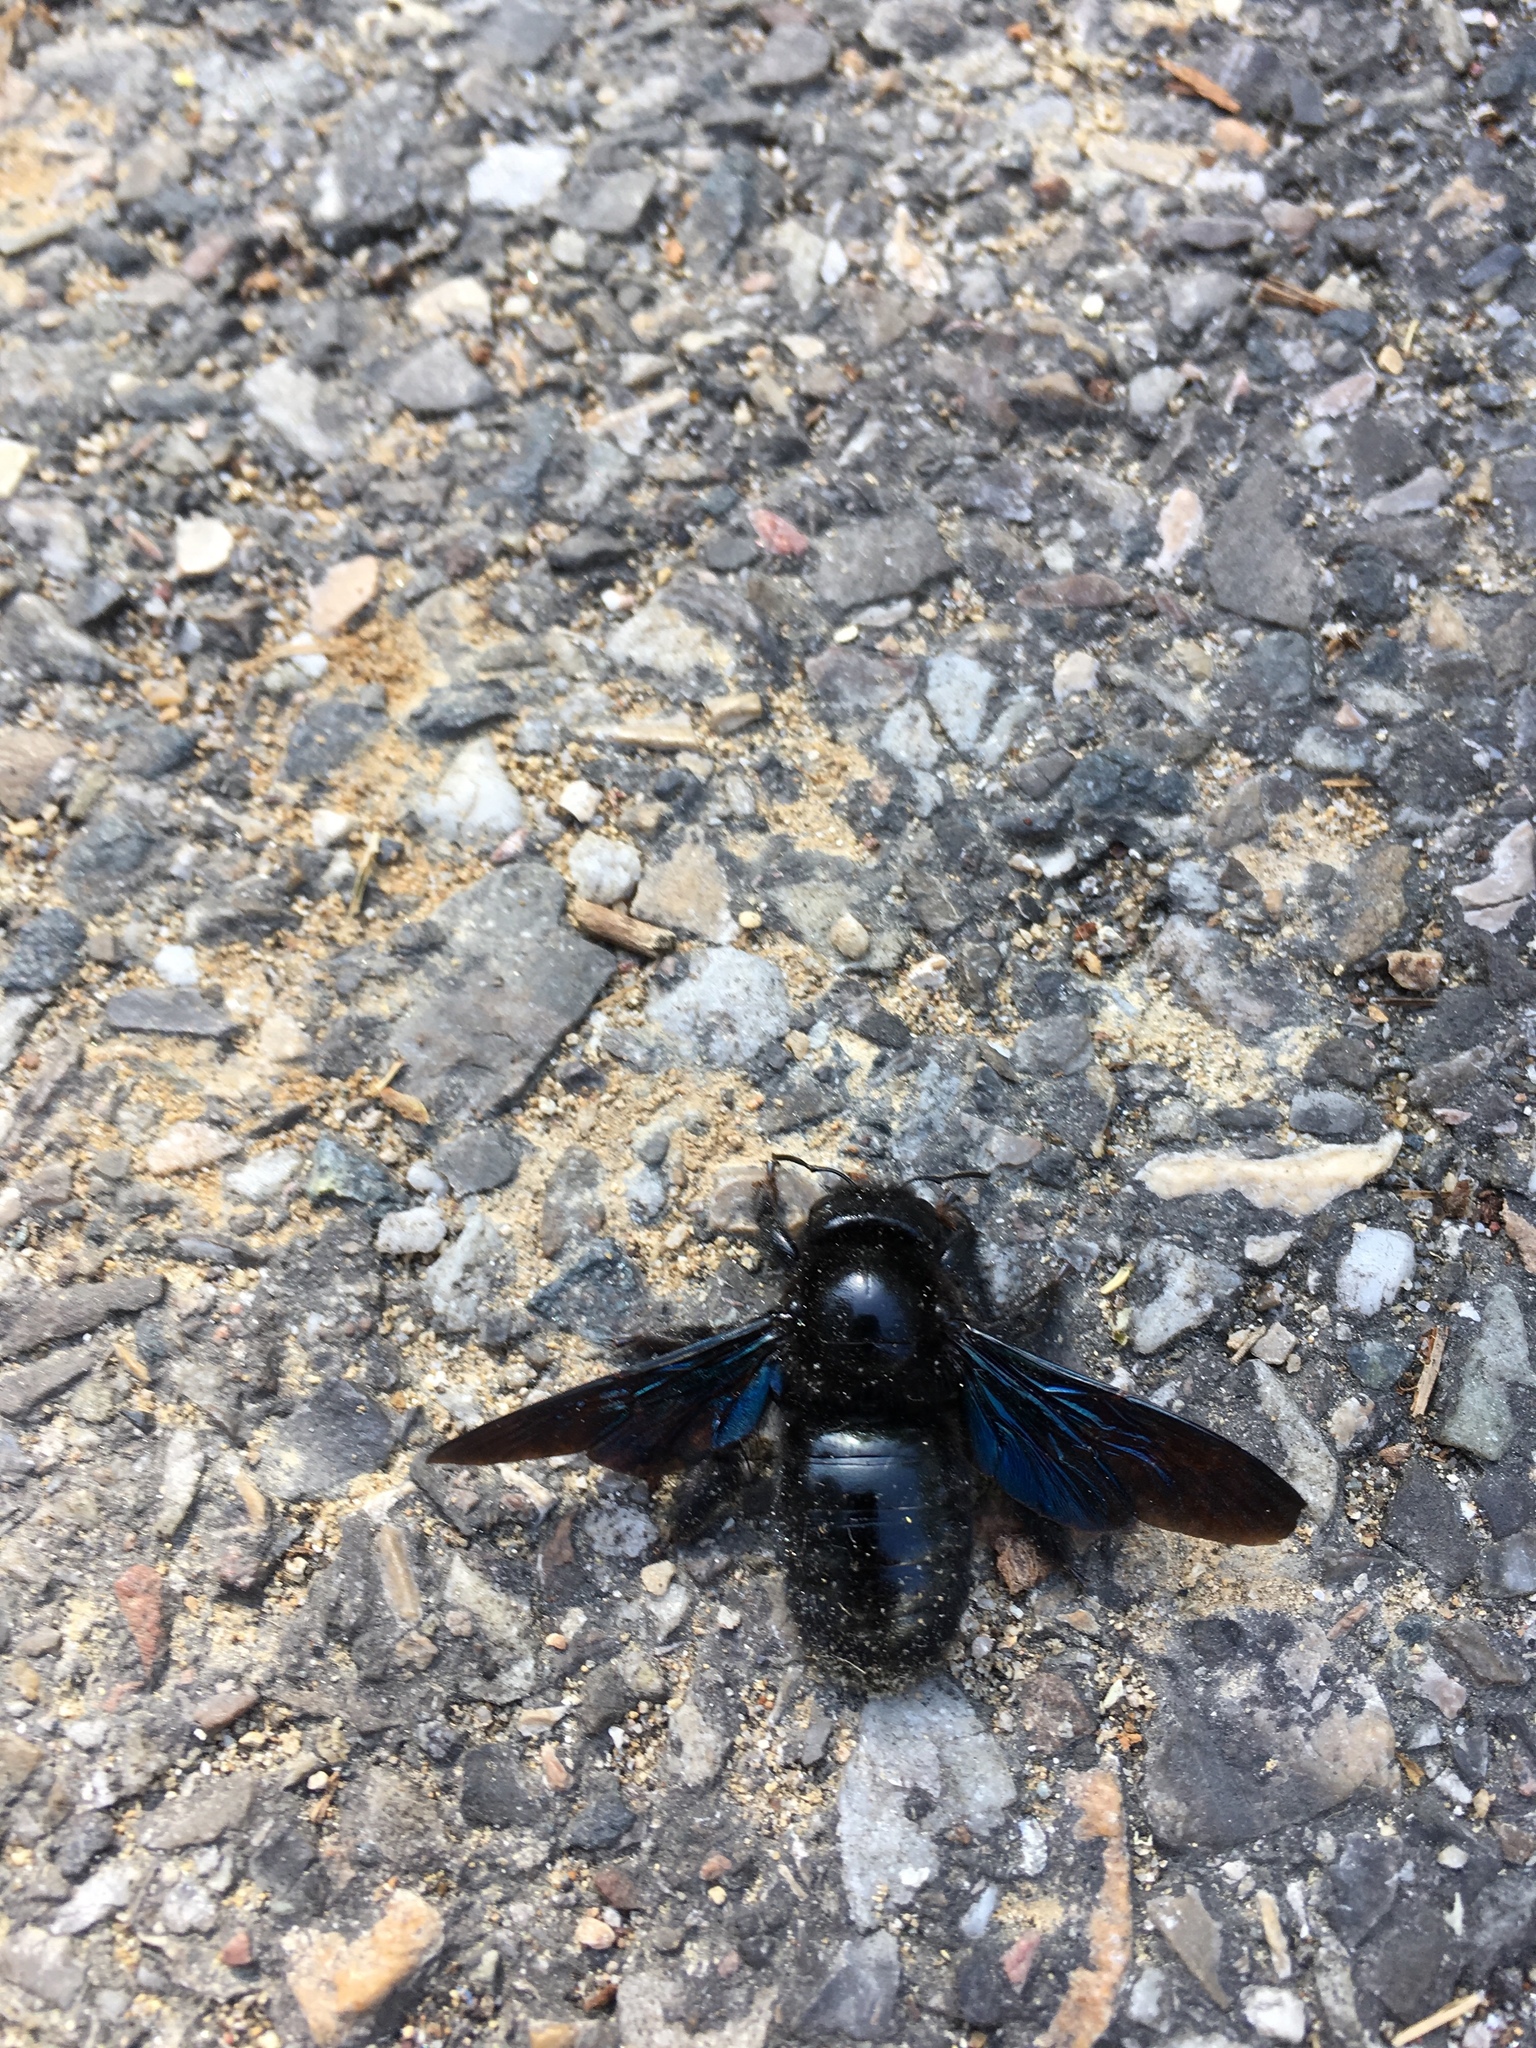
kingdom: Animalia
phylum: Arthropoda
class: Insecta
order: Hymenoptera
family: Apidae
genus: Xylocopa
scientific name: Xylocopa violacea
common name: Violet carpenter bee
